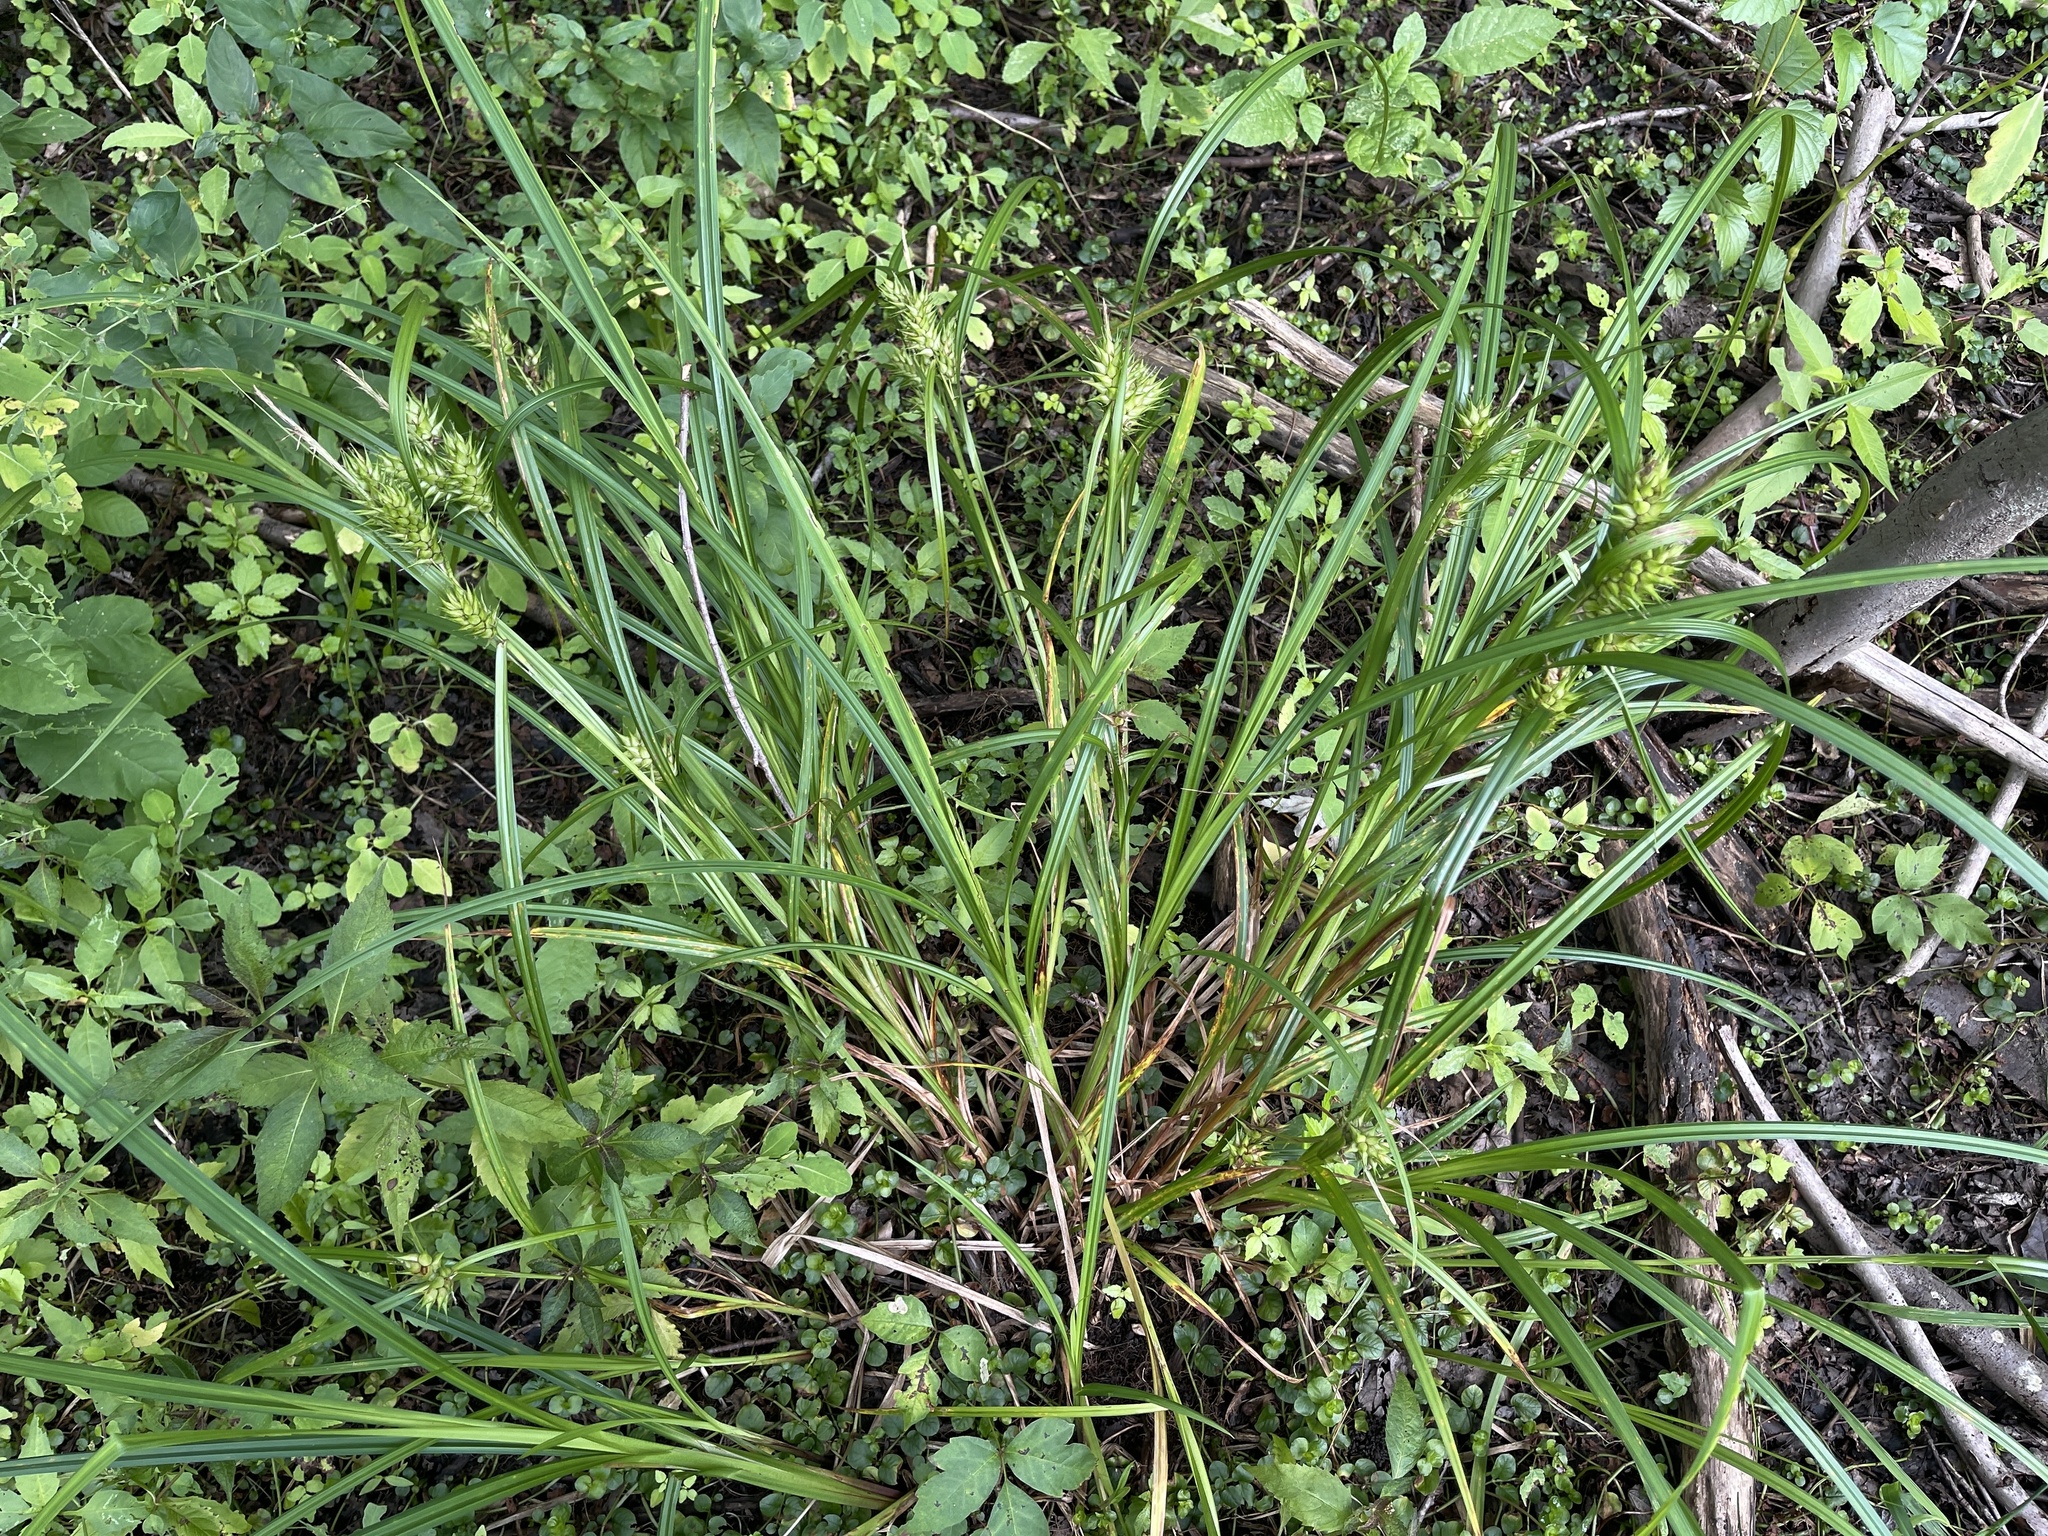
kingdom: Plantae
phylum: Tracheophyta
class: Liliopsida
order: Poales
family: Cyperaceae
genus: Carex
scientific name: Carex lupulina
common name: Hop sedge
